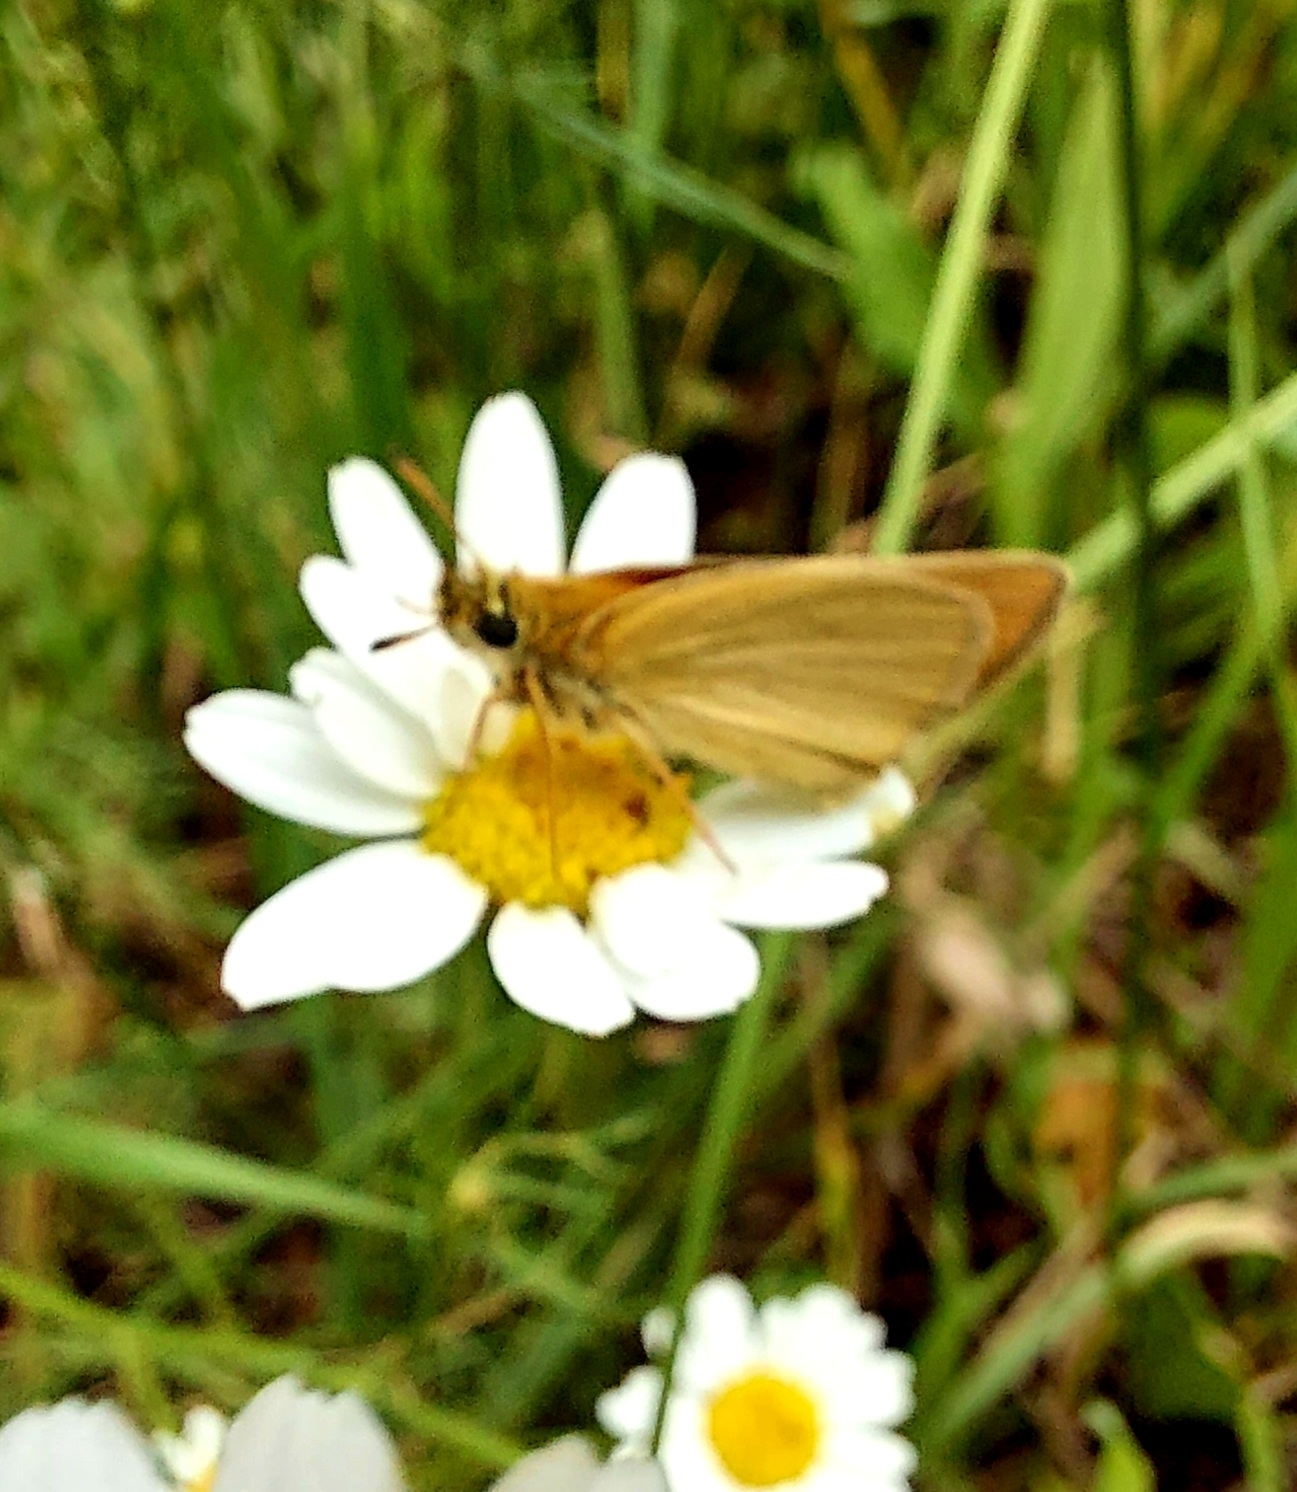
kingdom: Animalia
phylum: Arthropoda
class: Insecta
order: Lepidoptera
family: Hesperiidae
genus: Thymelicus
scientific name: Thymelicus lineola
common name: Essex skipper
